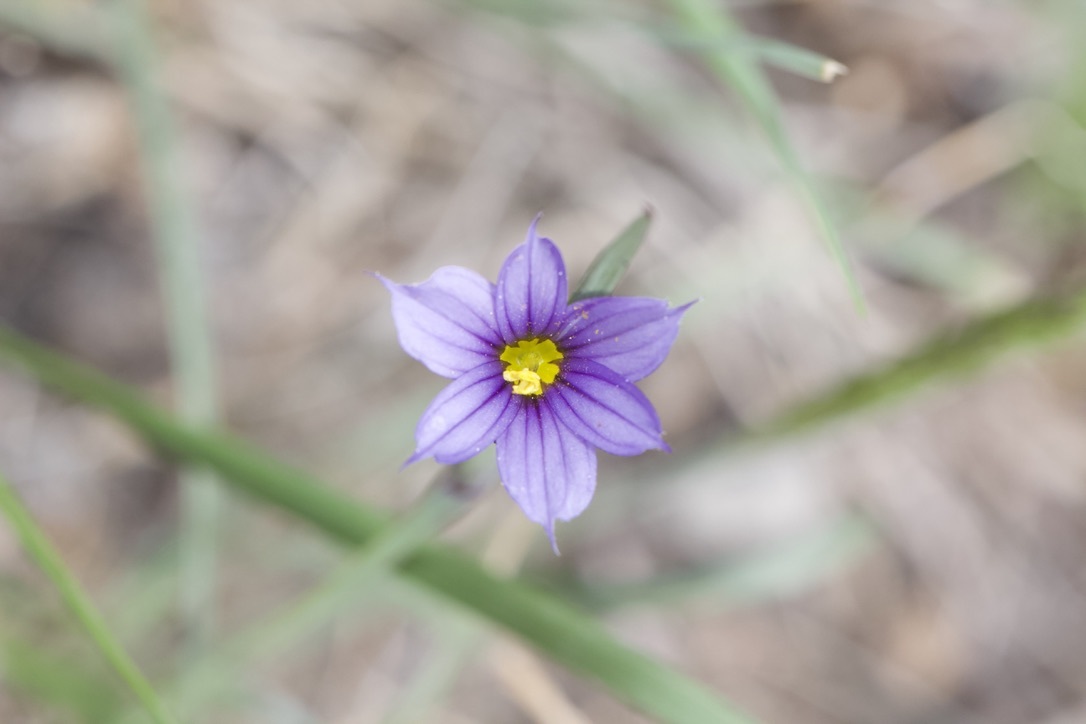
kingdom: Plantae
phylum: Tracheophyta
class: Liliopsida
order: Asparagales
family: Iridaceae
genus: Sisyrinchium
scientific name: Sisyrinchium montanum
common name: American blue-eyed-grass
